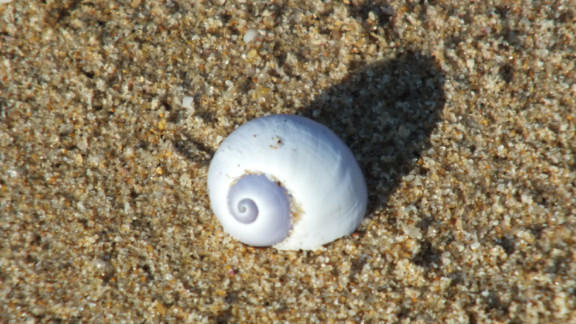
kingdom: Animalia
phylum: Mollusca
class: Gastropoda
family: Epitoniidae
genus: Janthina
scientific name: Janthina janthina
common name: Common janthina
